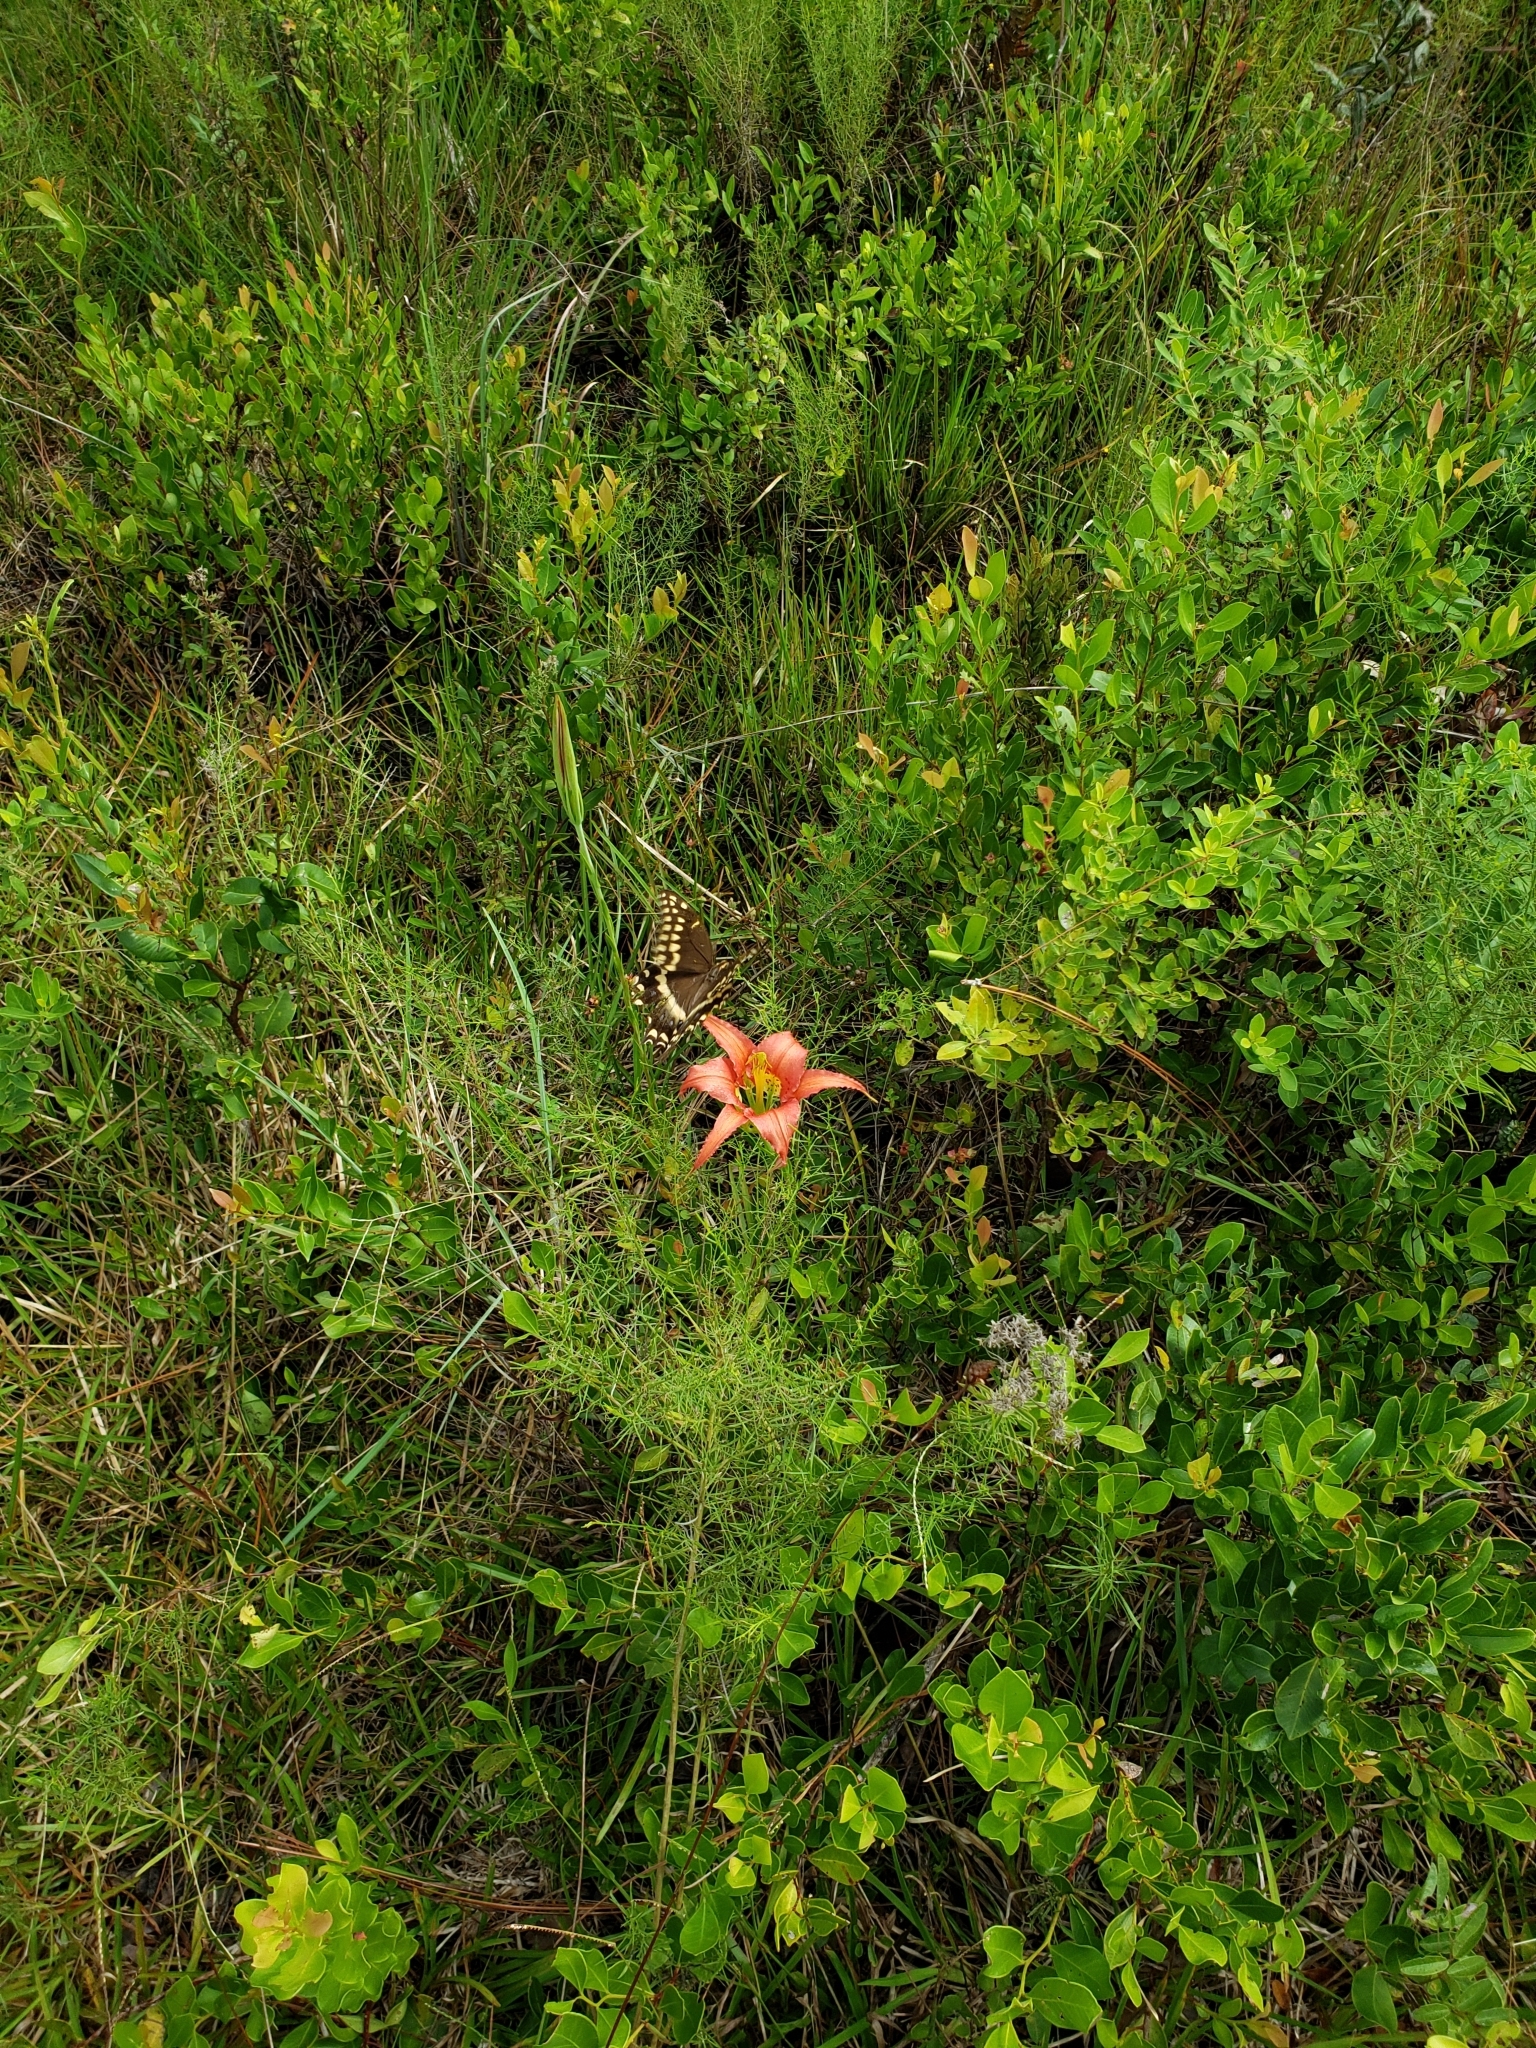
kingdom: Animalia
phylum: Arthropoda
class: Insecta
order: Lepidoptera
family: Papilionidae
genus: Papilio
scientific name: Papilio palamedes
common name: Palamedes swallowtail
